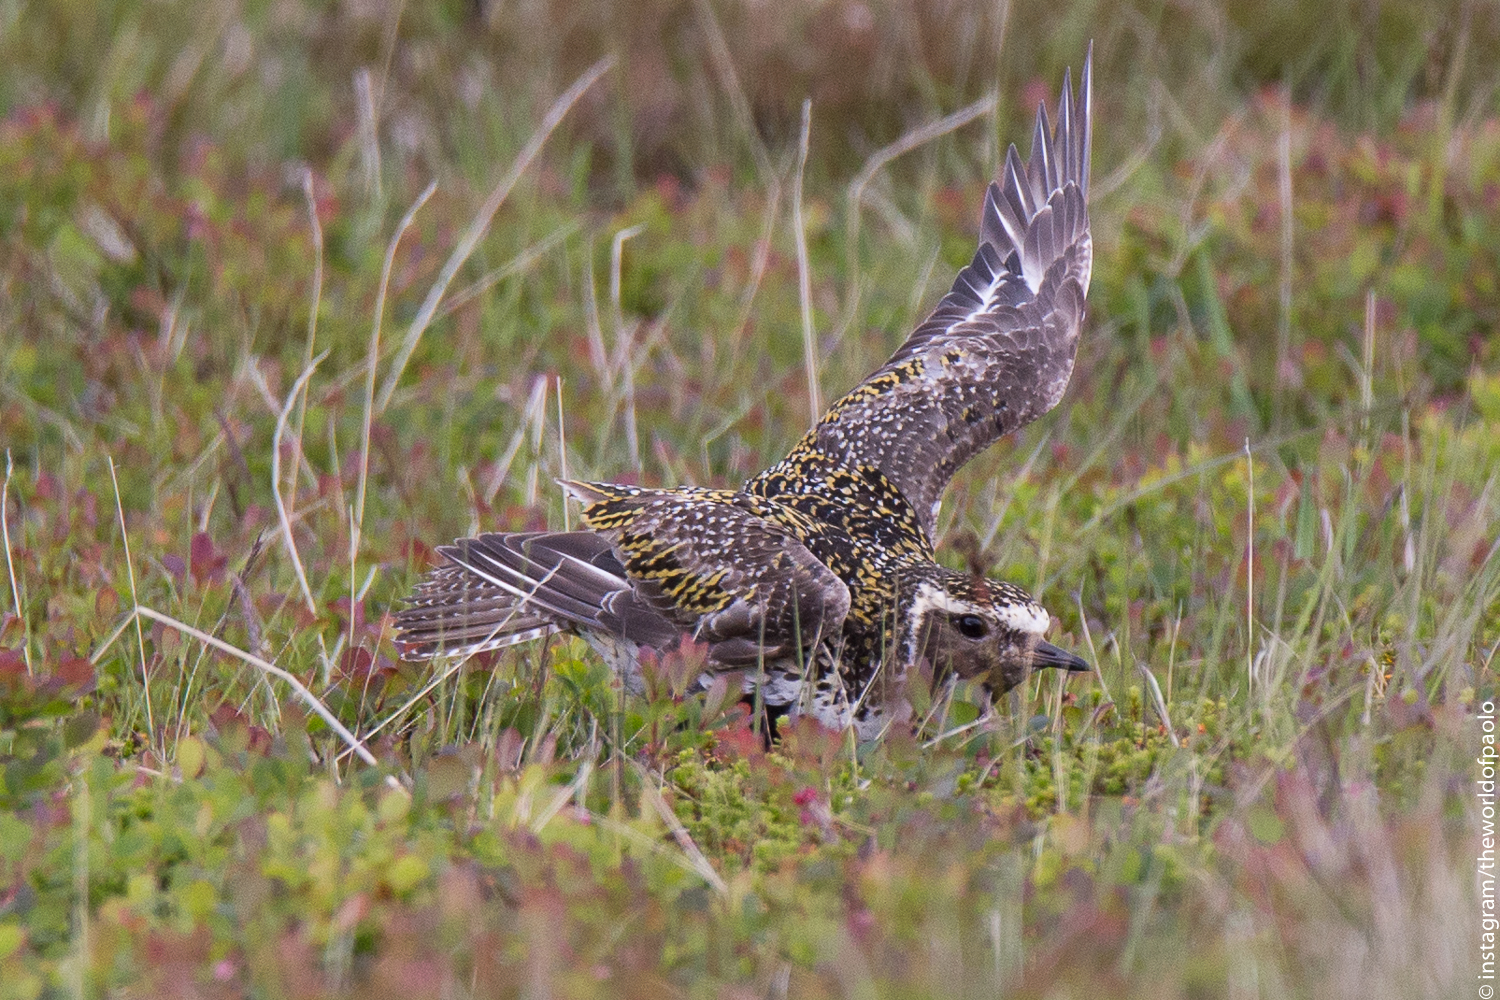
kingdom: Animalia
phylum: Chordata
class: Aves
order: Charadriiformes
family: Charadriidae
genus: Pluvialis
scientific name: Pluvialis apricaria
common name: European golden plover
